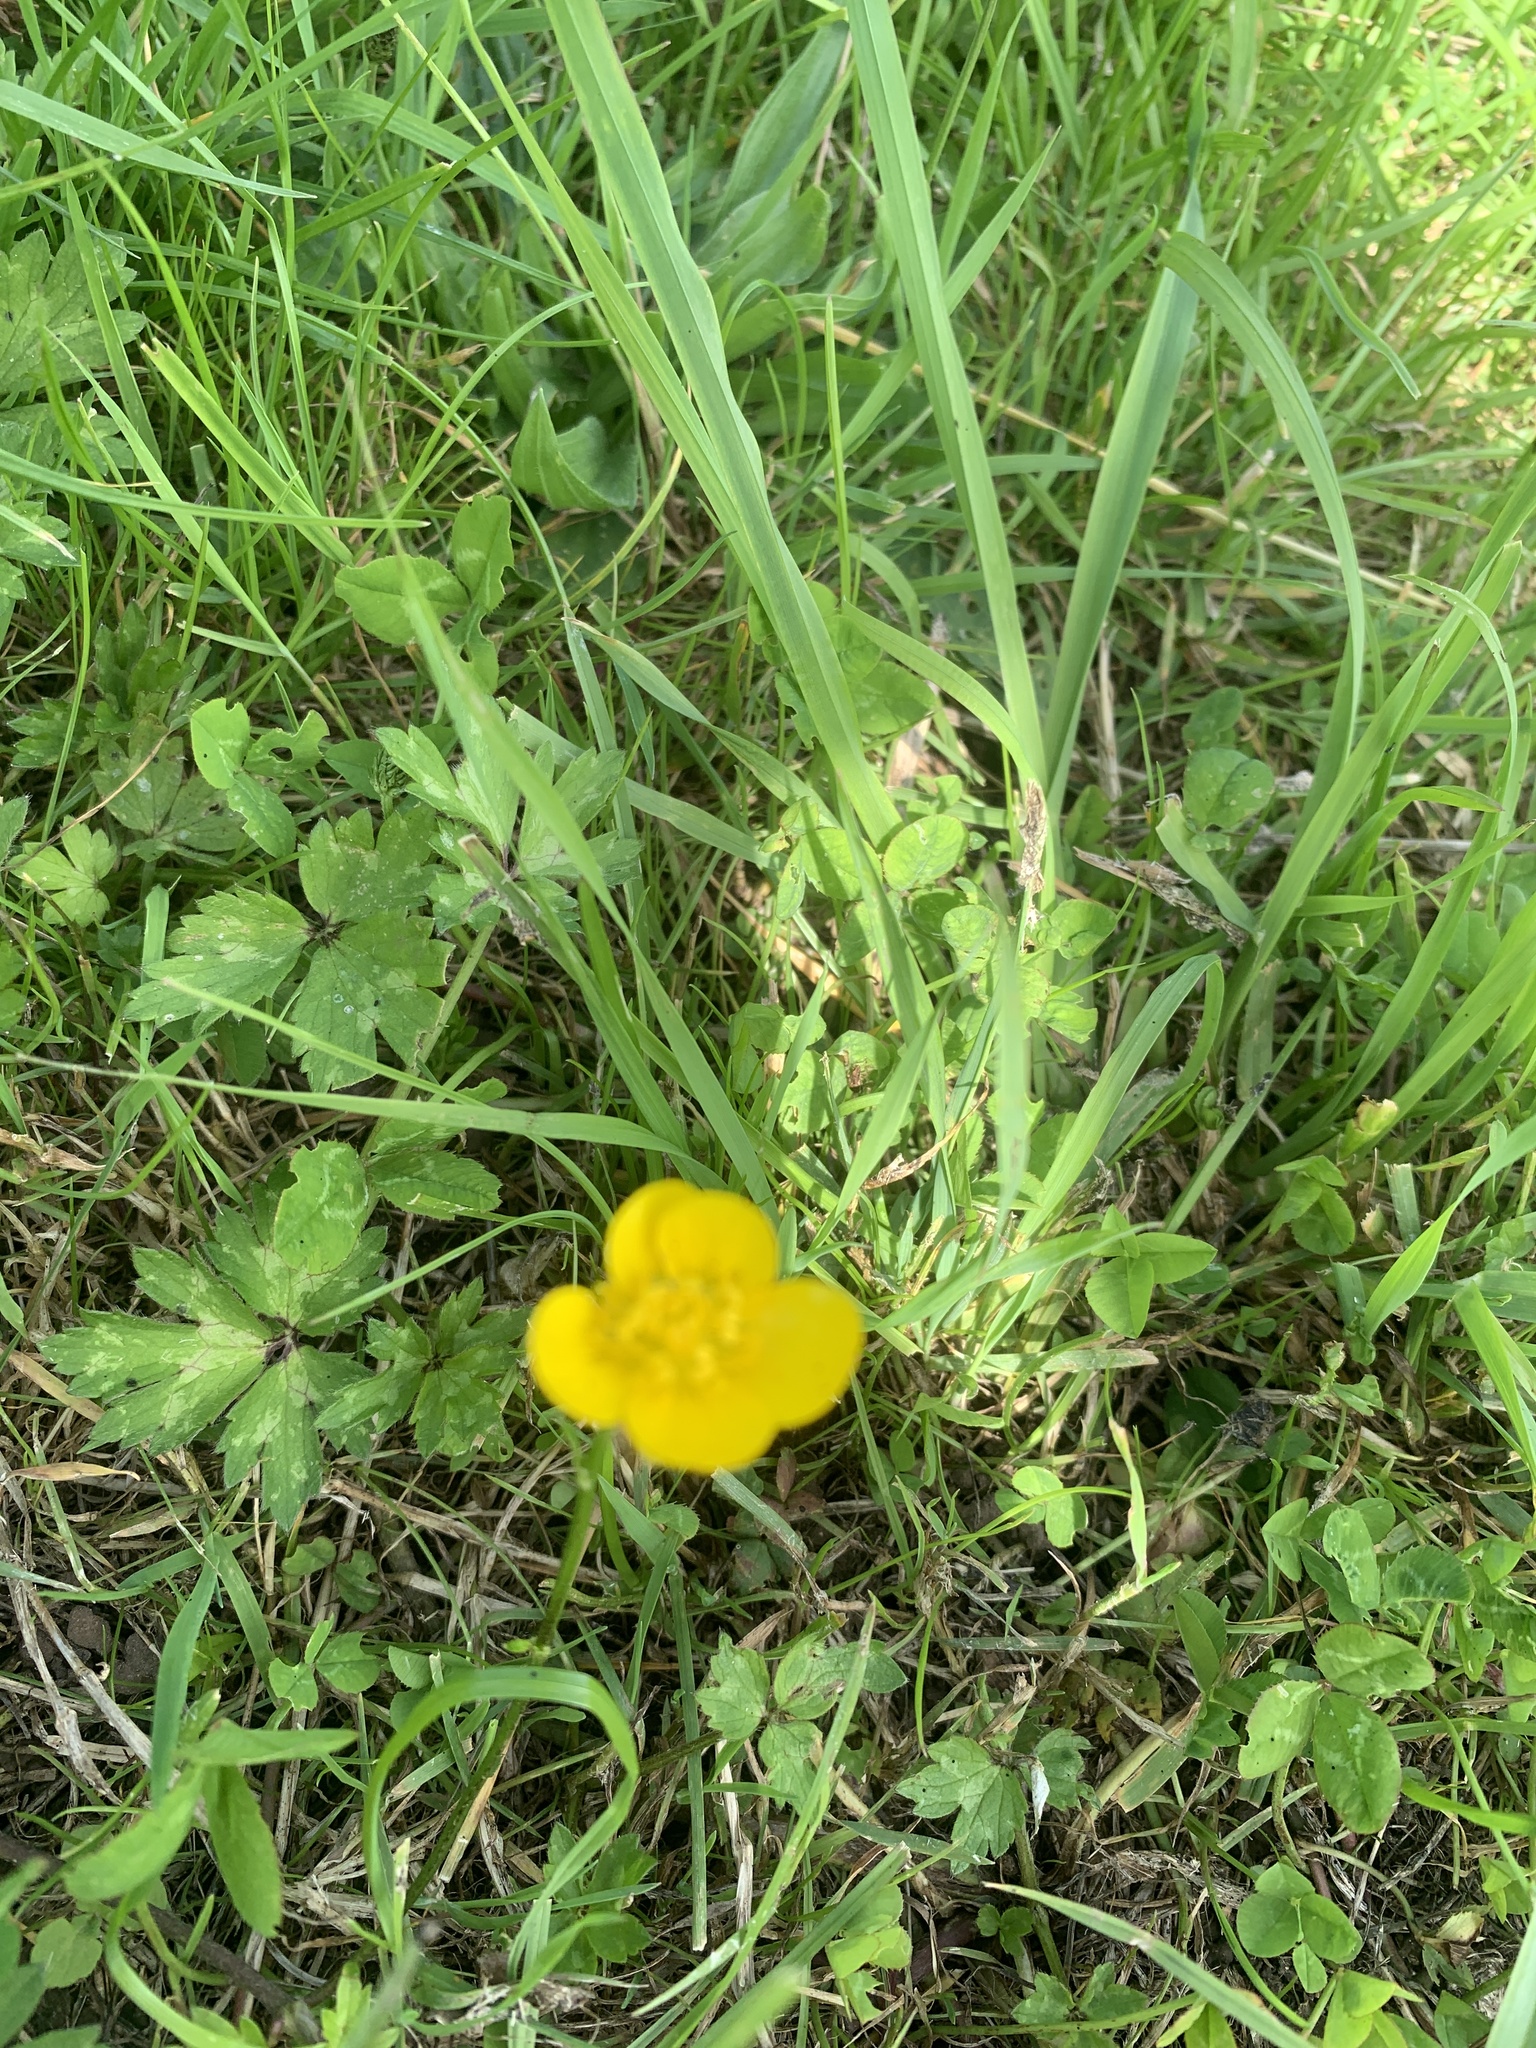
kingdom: Plantae
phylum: Tracheophyta
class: Magnoliopsida
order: Ranunculales
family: Ranunculaceae
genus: Ranunculus
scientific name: Ranunculus repens
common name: Creeping buttercup
